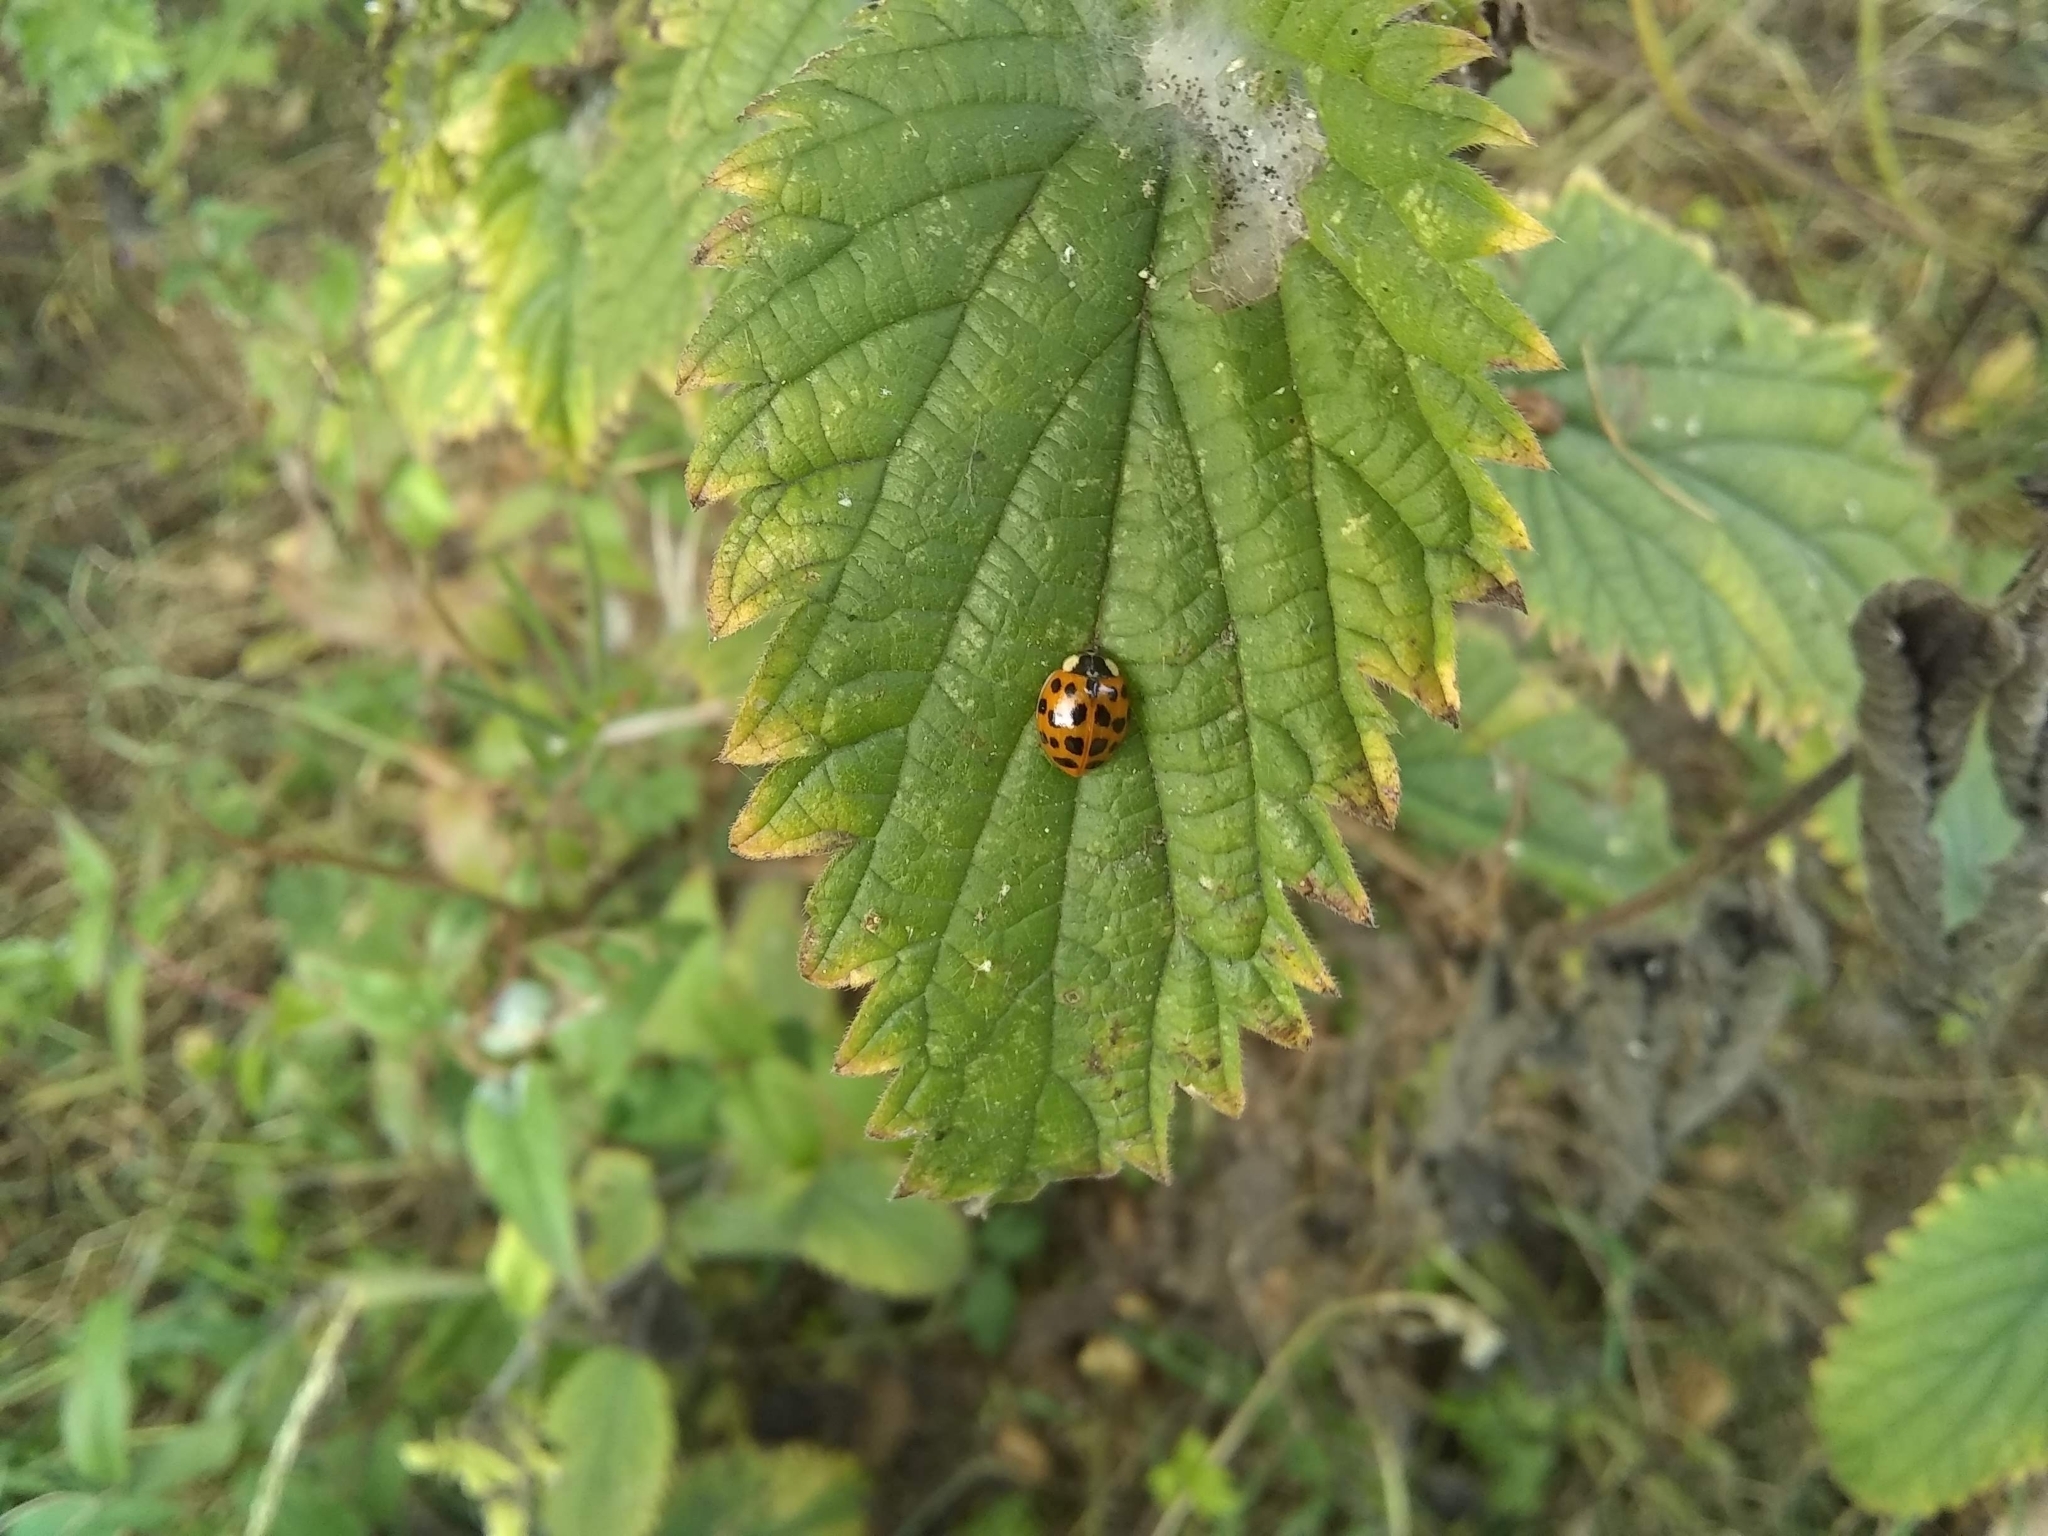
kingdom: Animalia
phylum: Arthropoda
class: Insecta
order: Coleoptera
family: Coccinellidae
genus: Harmonia
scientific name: Harmonia axyridis
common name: Harlequin ladybird
